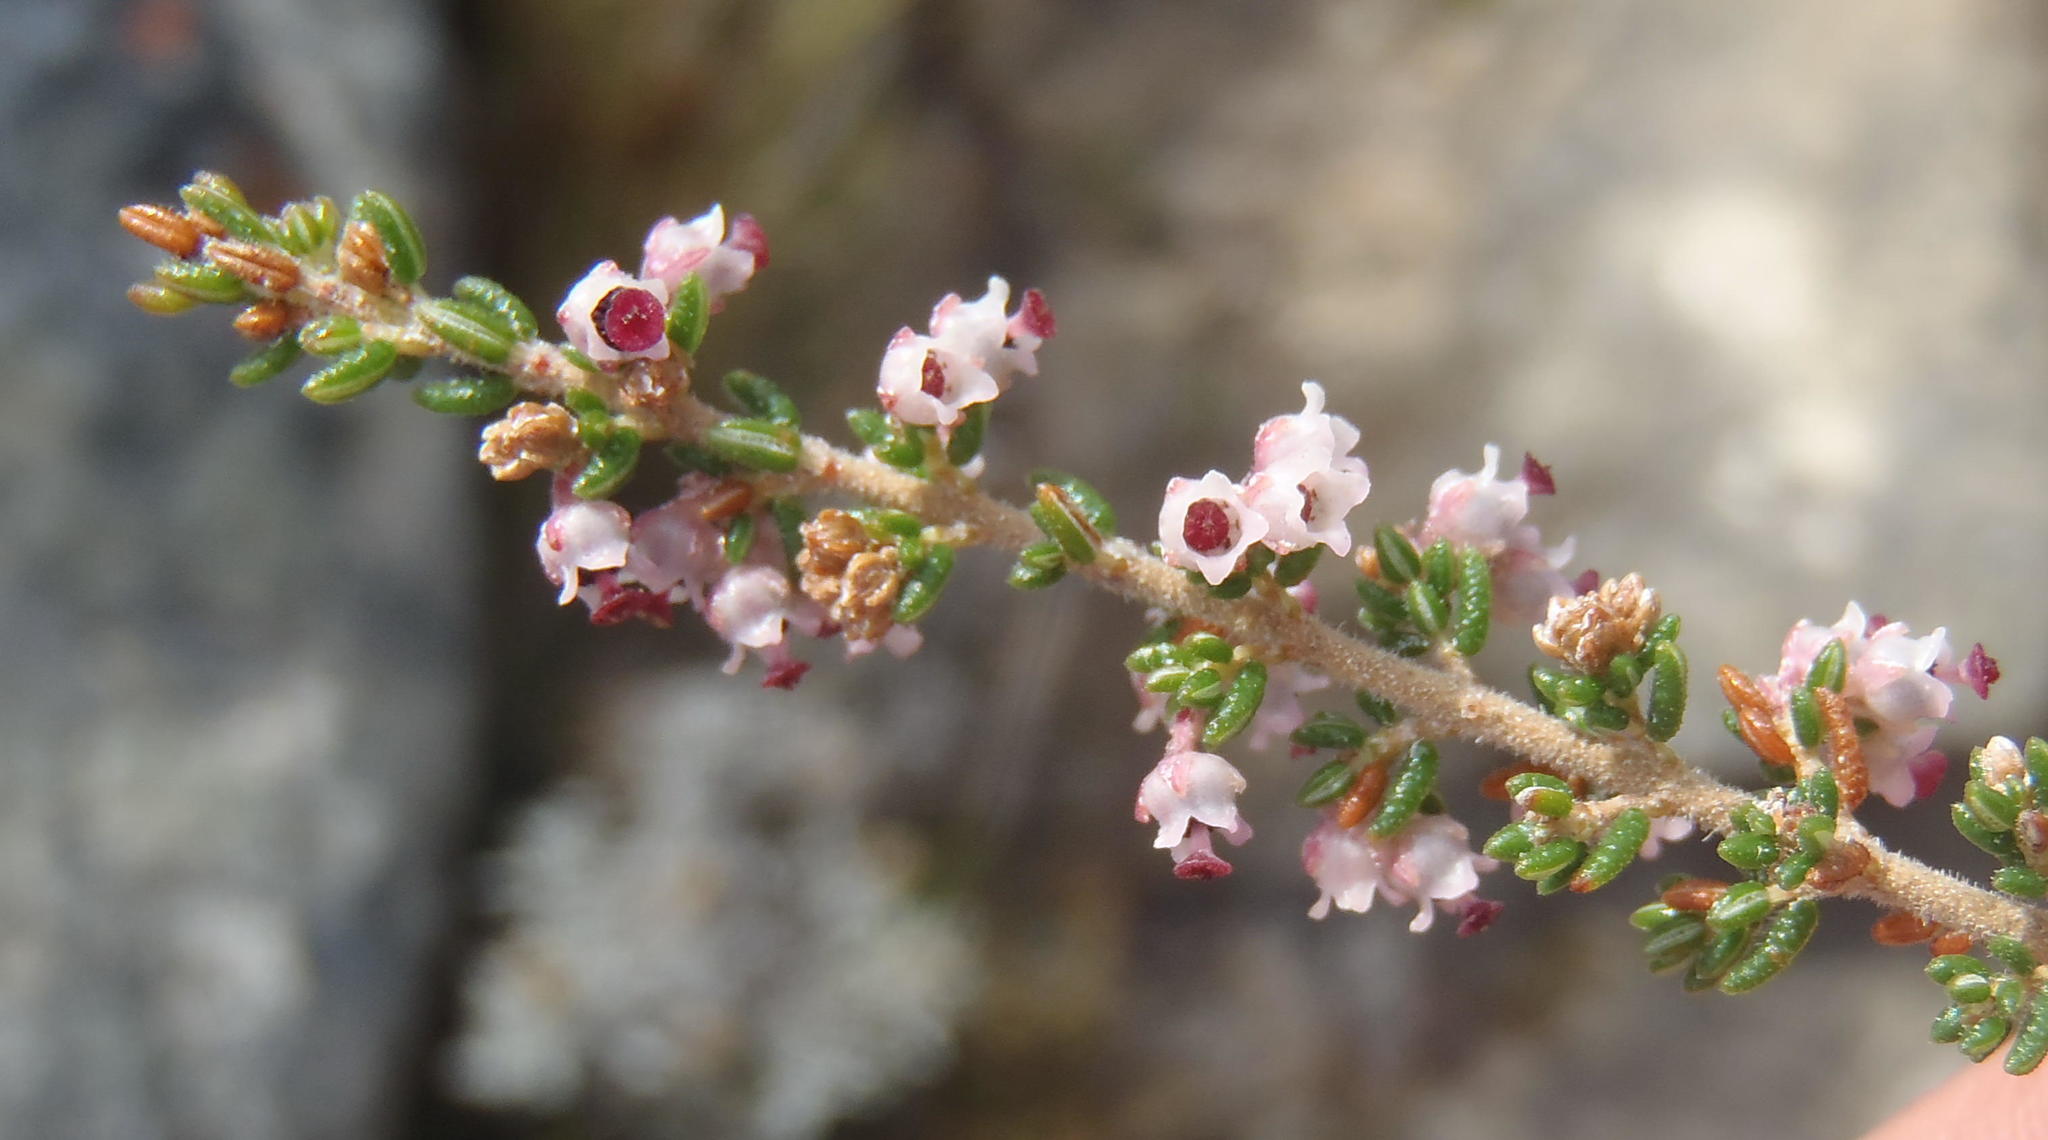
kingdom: Plantae
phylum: Tracheophyta
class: Magnoliopsida
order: Ericales
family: Ericaceae
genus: Erica
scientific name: Erica hispidula
